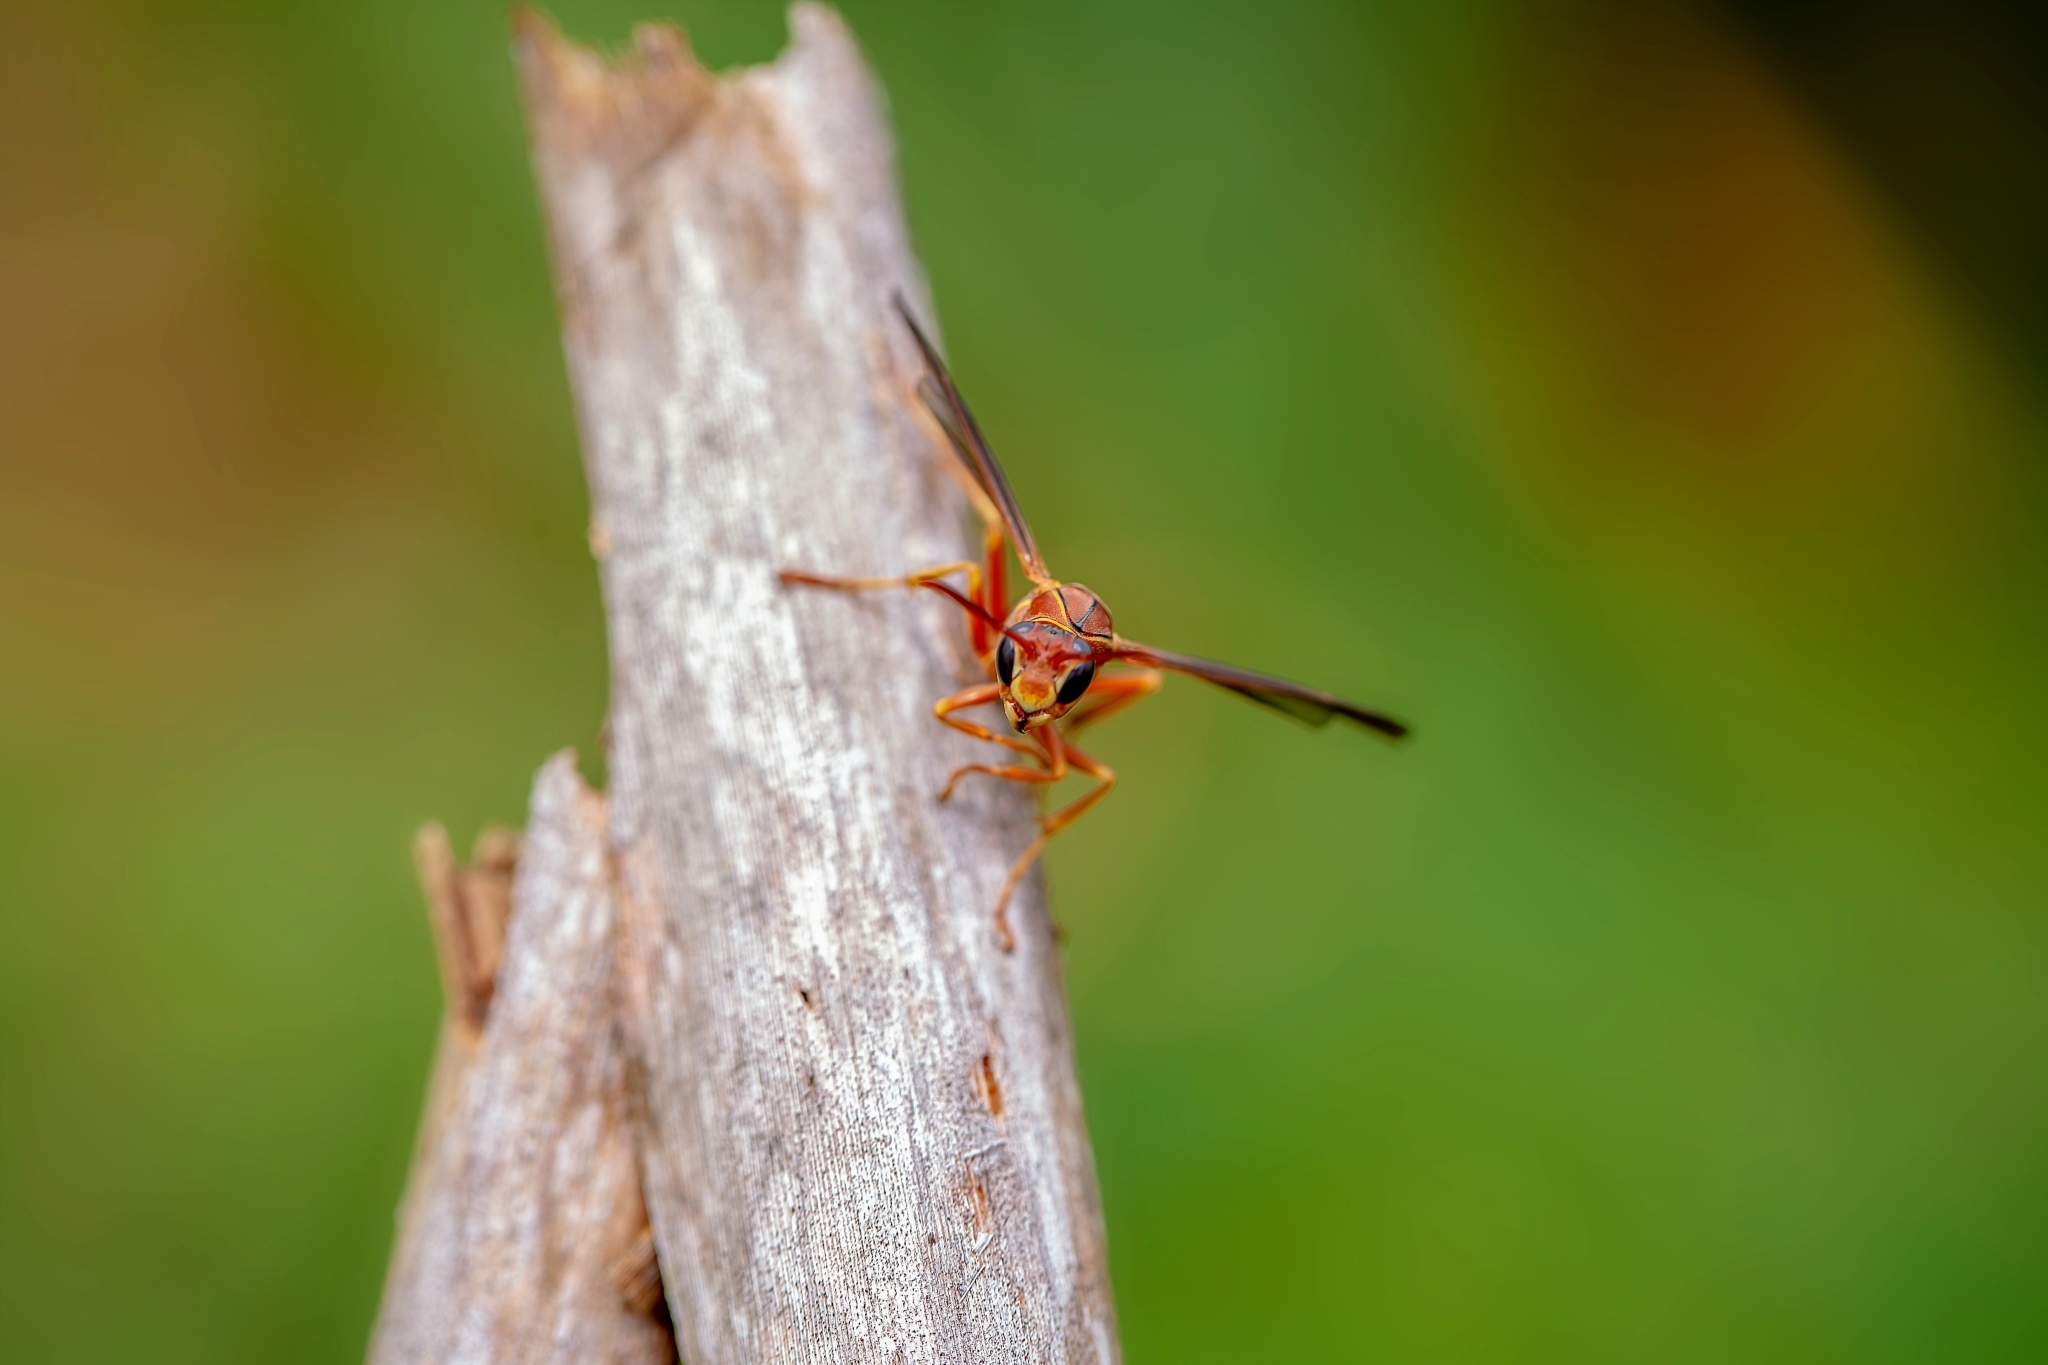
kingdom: Animalia
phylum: Arthropoda
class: Insecta
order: Hymenoptera
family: Eumenidae
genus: Polistes
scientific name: Polistes dorsalis
